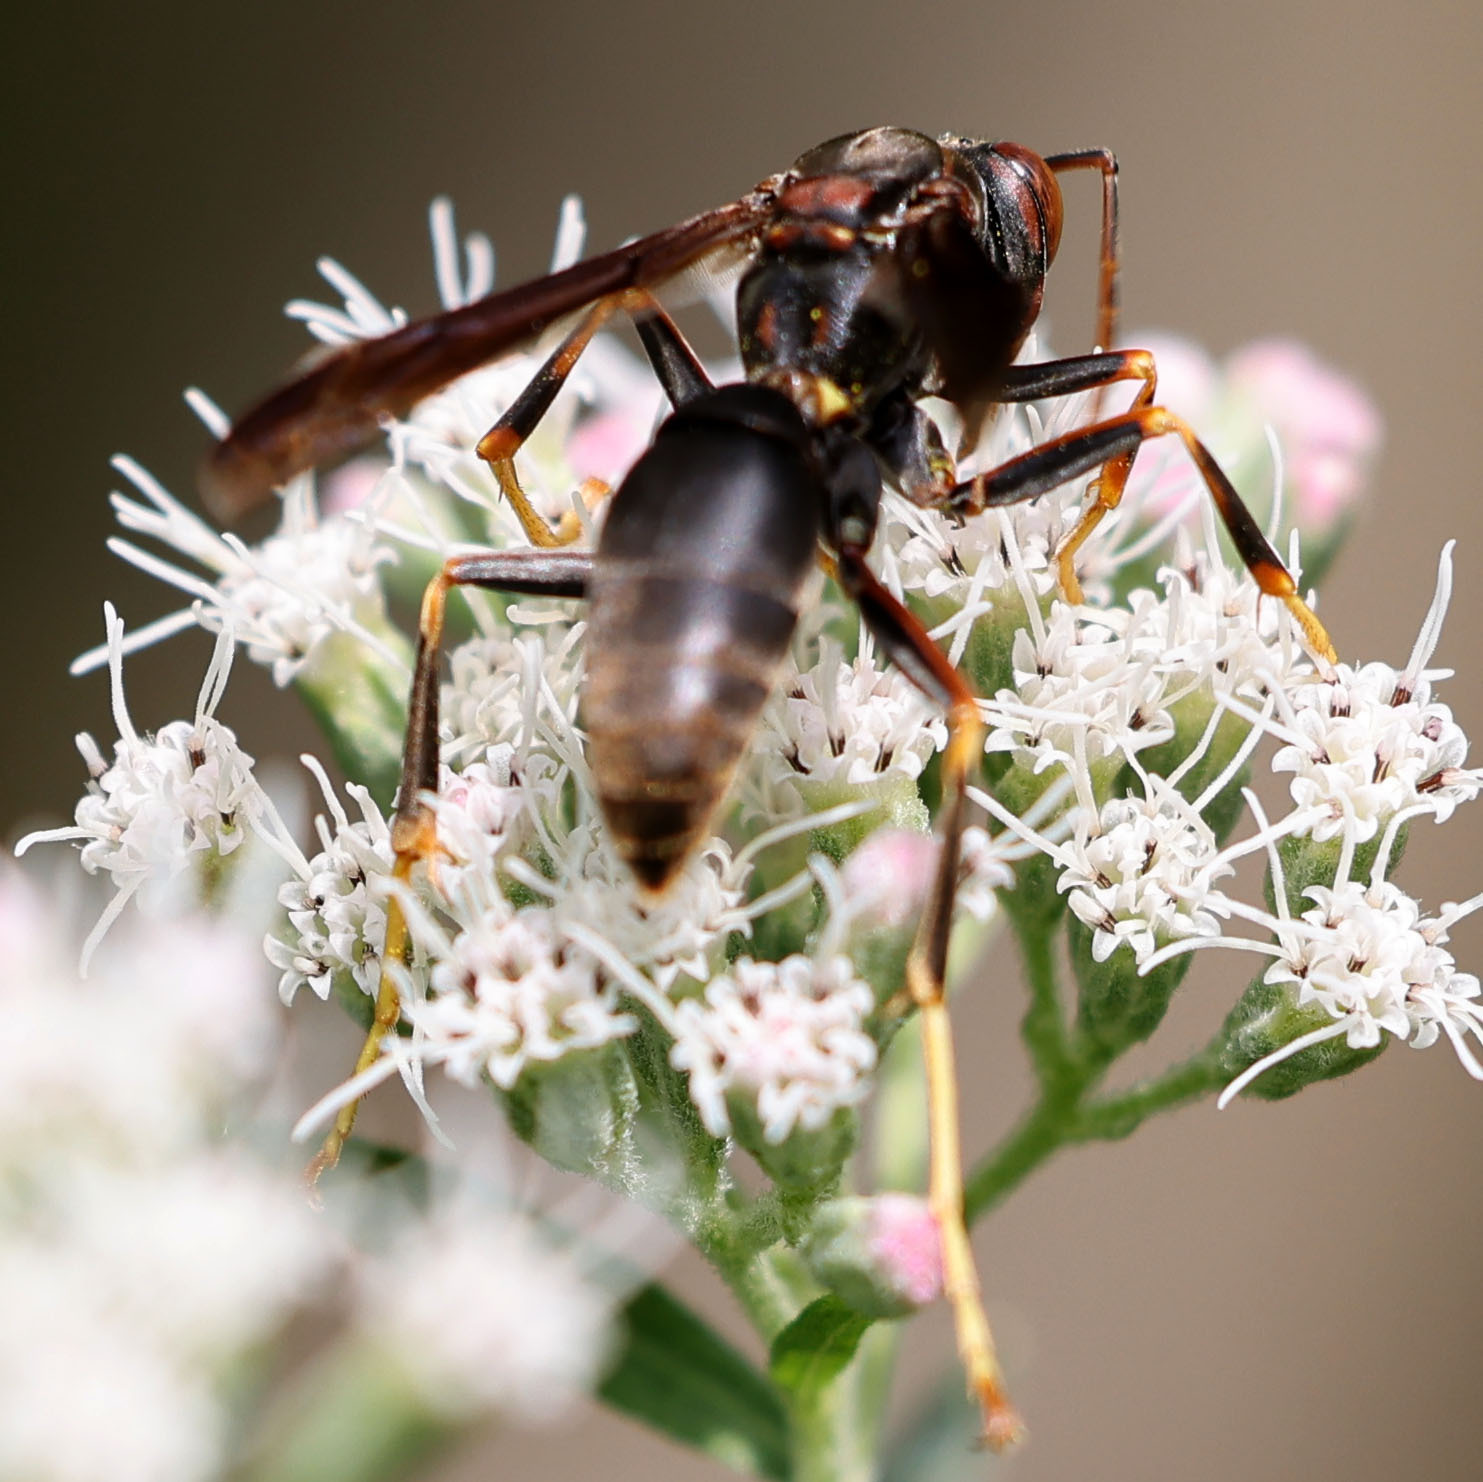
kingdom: Animalia
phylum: Arthropoda
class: Insecta
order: Hymenoptera
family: Eumenidae
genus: Polistes
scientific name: Polistes fuscatus
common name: Dark paper wasp
